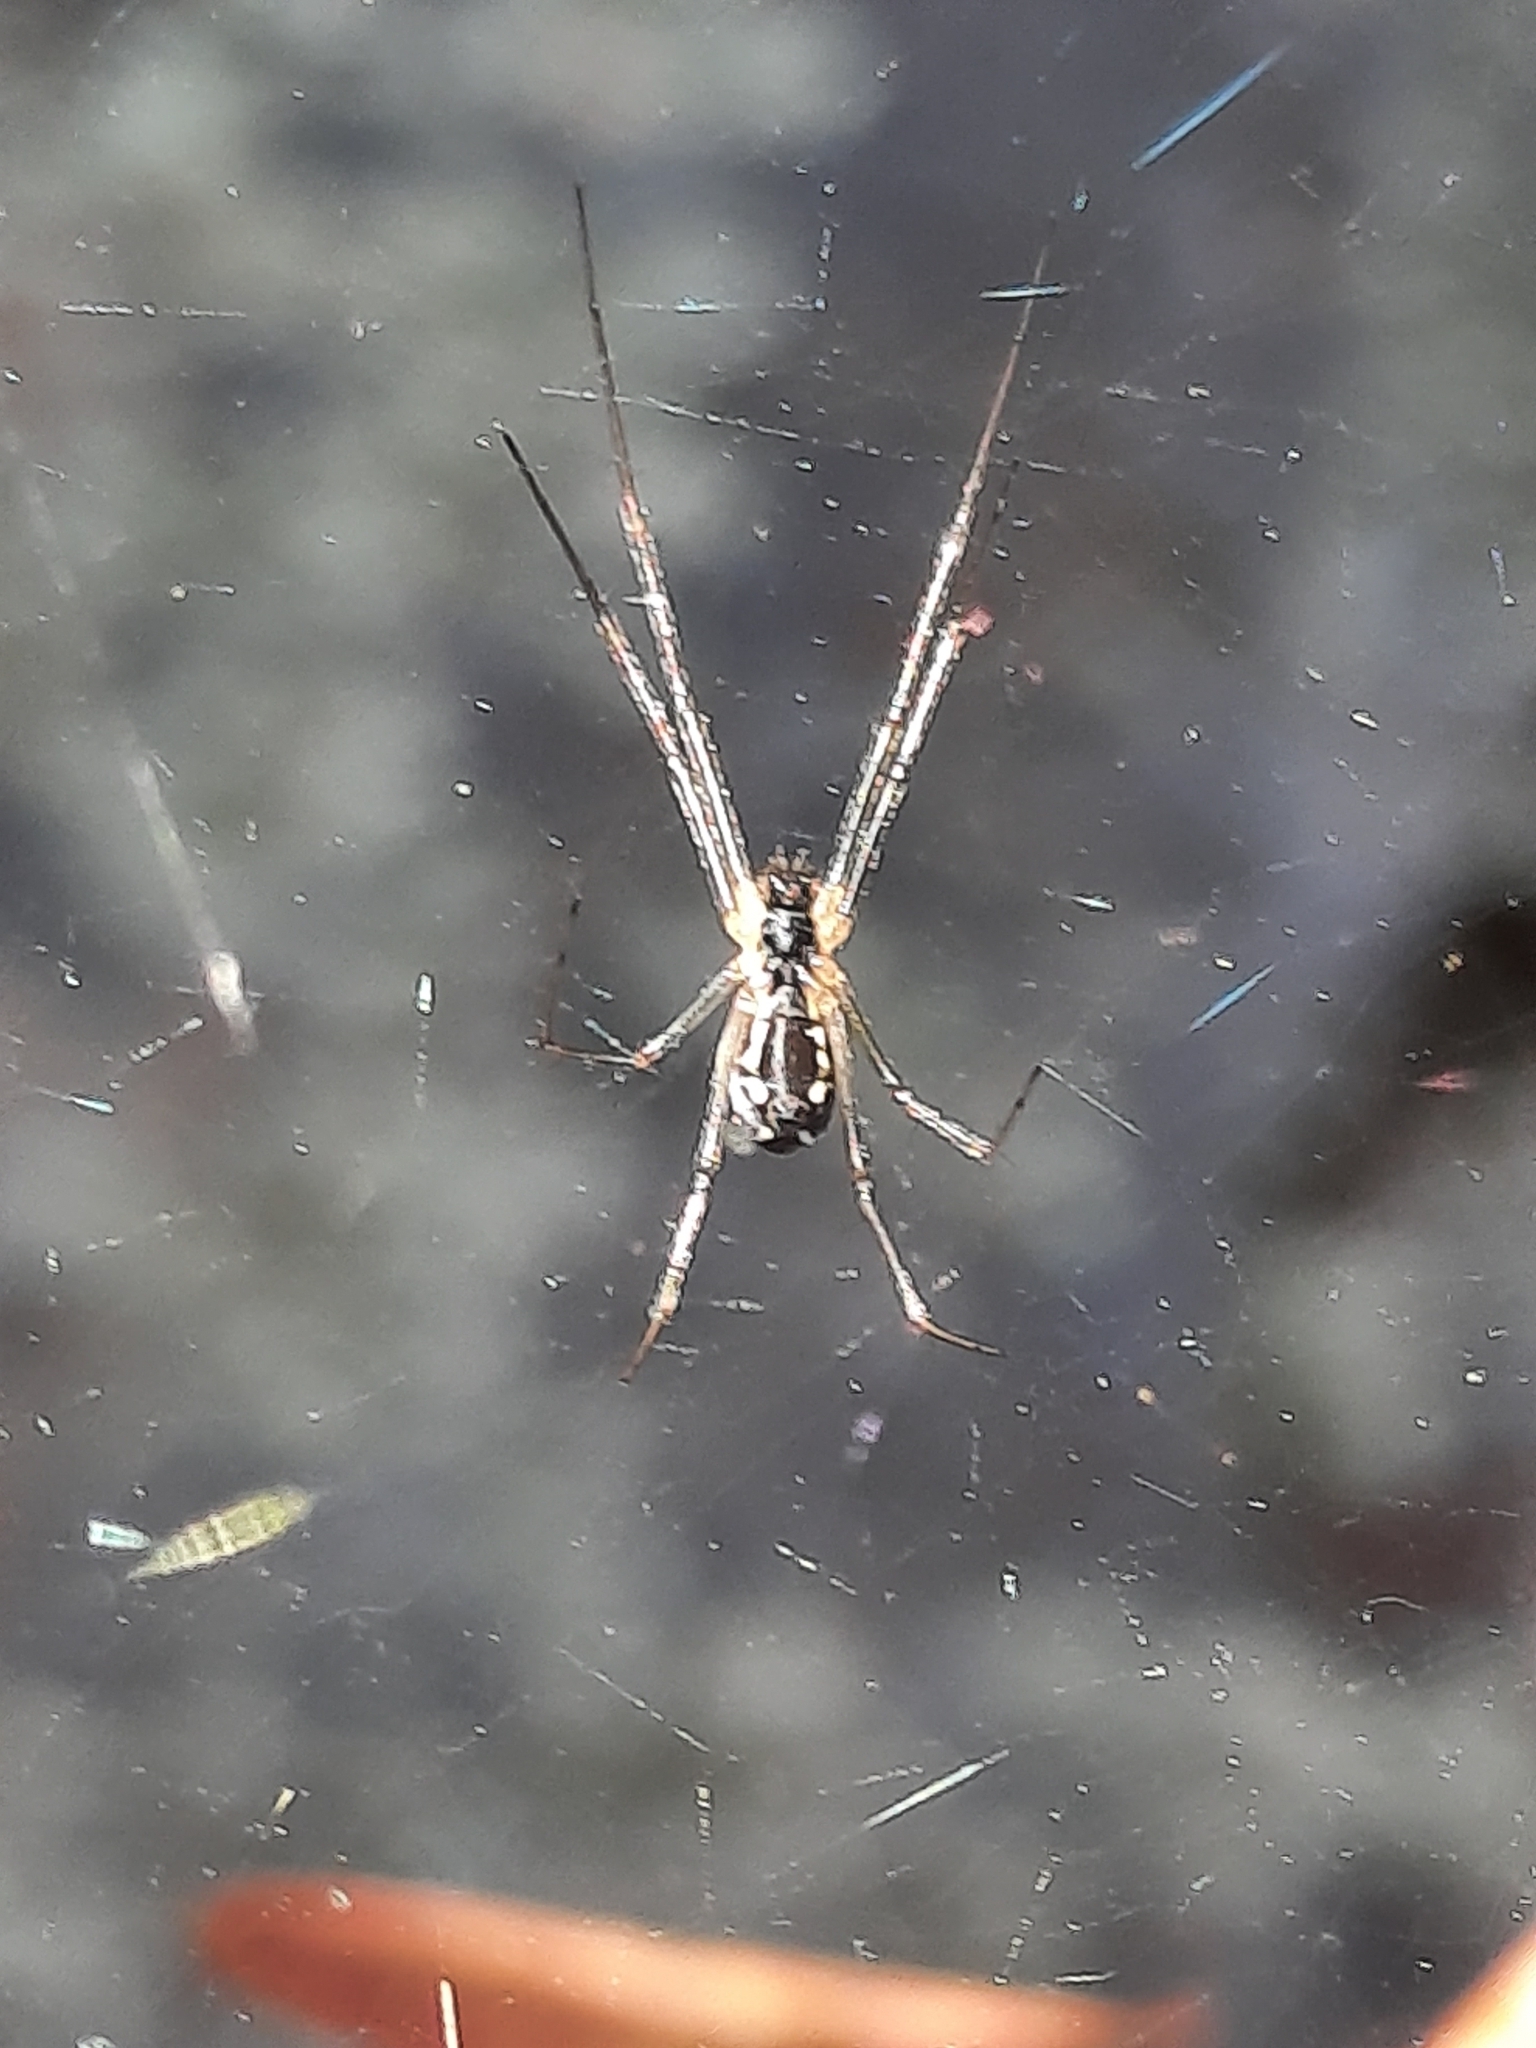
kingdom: Animalia
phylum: Arthropoda
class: Arachnida
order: Araneae
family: Linyphiidae
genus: Neriene
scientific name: Neriene radiata
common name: Filmy dome spider
